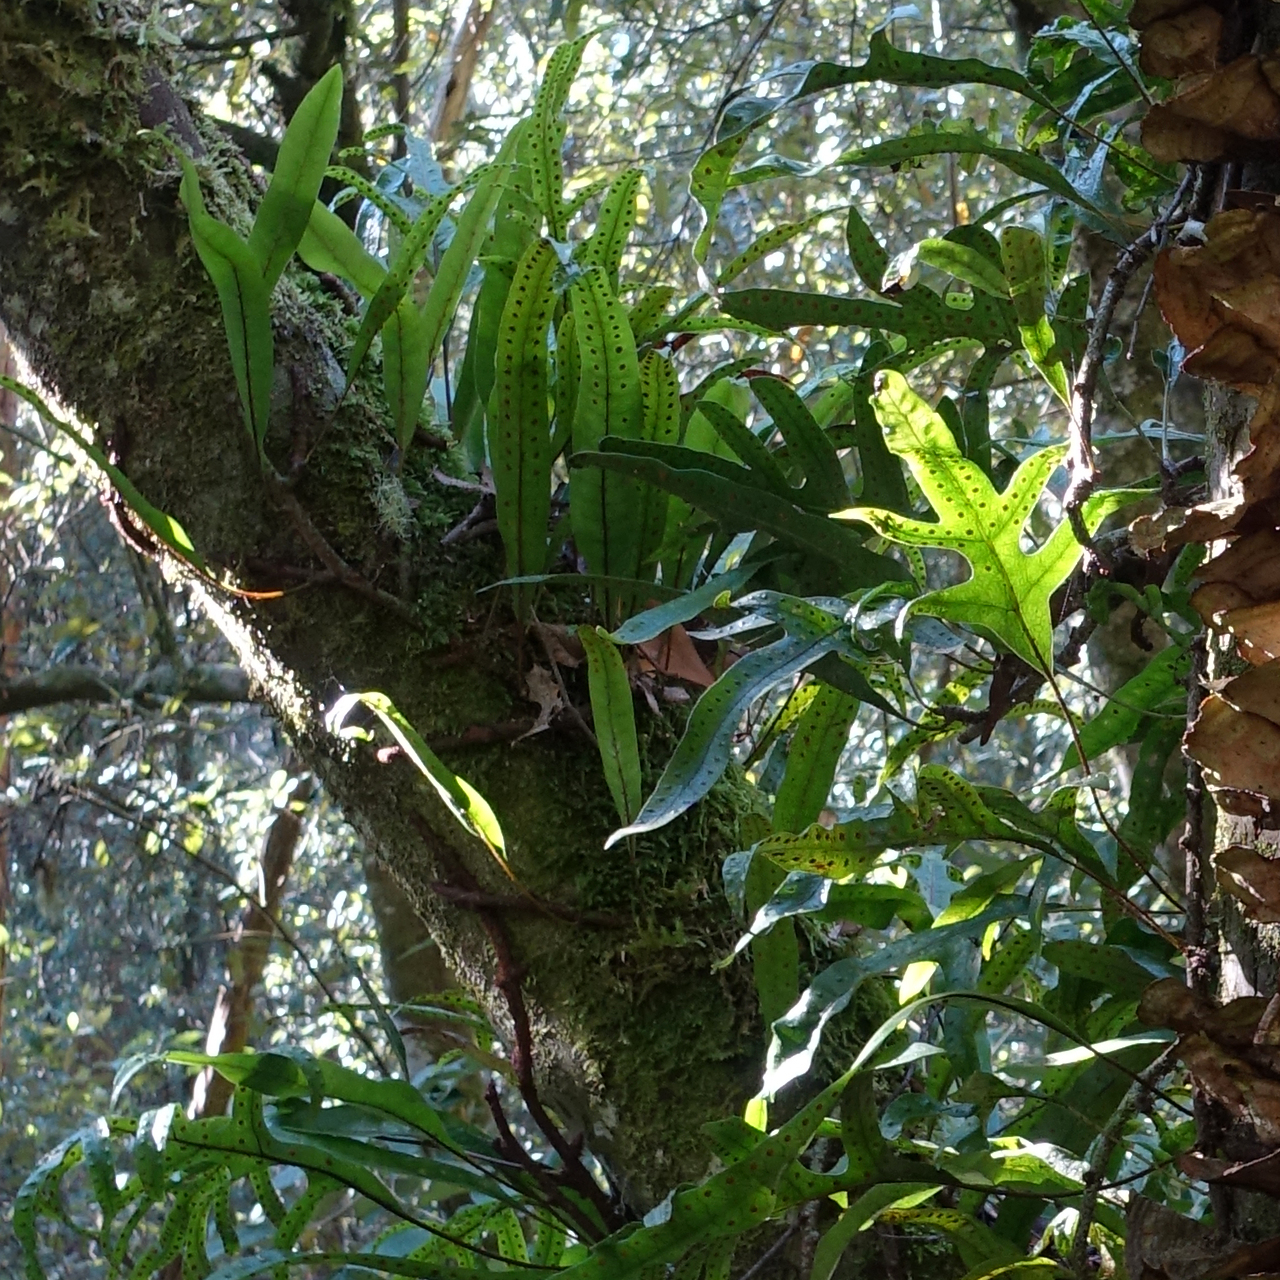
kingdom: Plantae
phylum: Tracheophyta
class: Polypodiopsida
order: Polypodiales
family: Polypodiaceae
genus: Lecanopteris
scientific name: Lecanopteris pustulata
